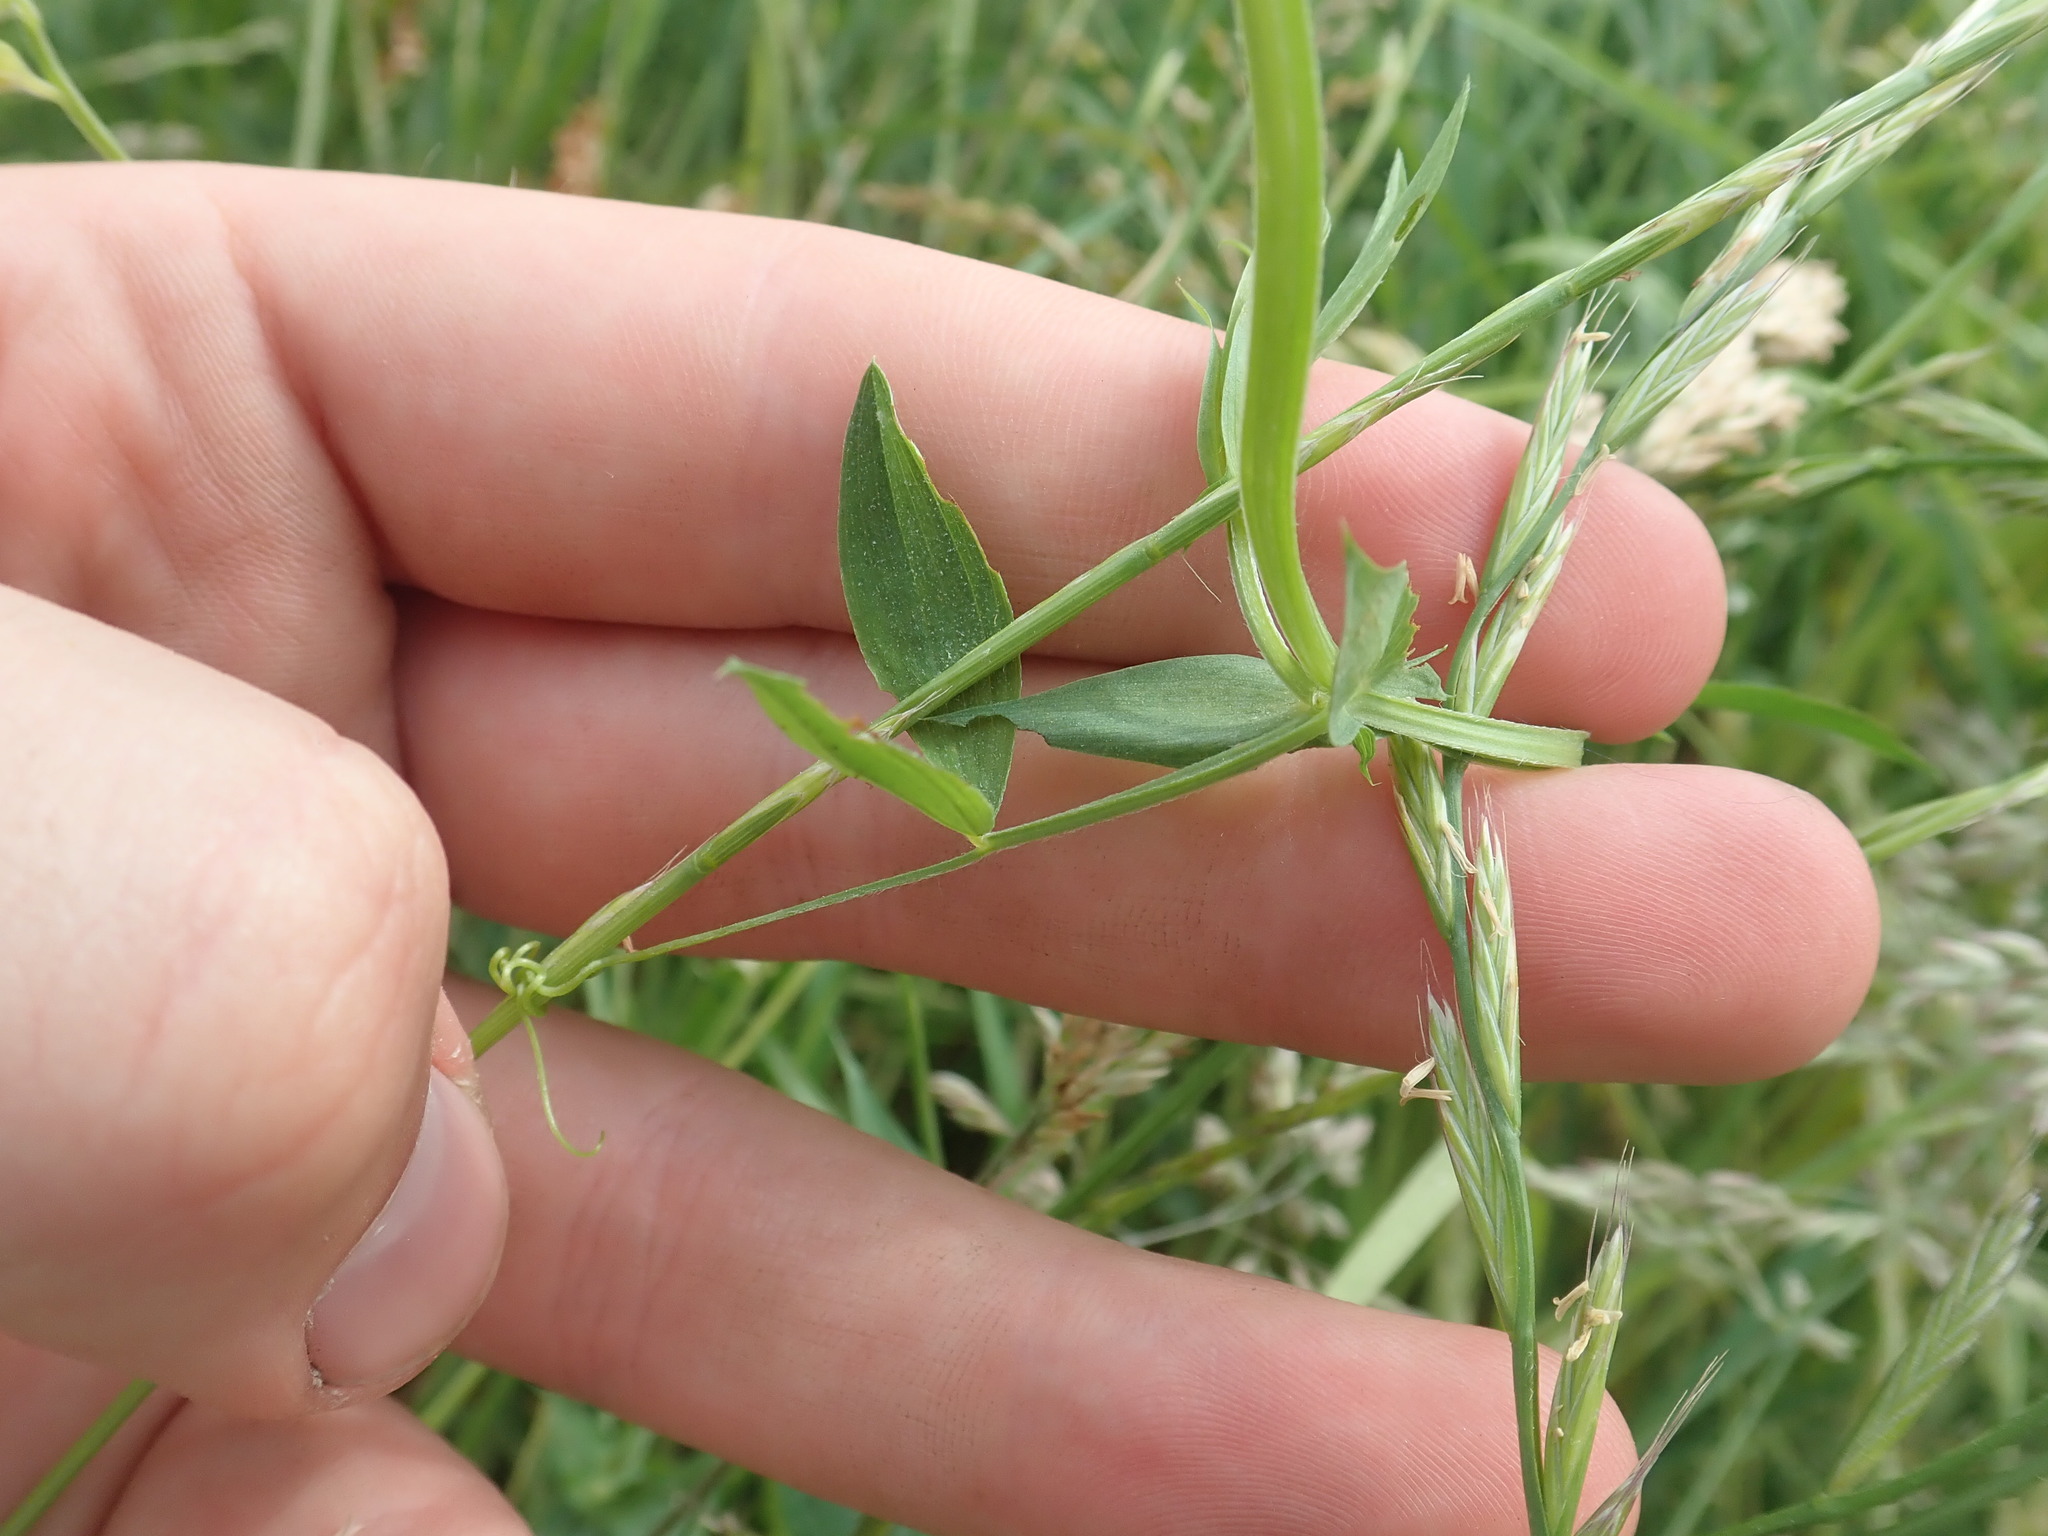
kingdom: Plantae
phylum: Tracheophyta
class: Magnoliopsida
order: Fabales
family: Fabaceae
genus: Lathyrus
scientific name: Lathyrus pratensis
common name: Meadow vetchling
